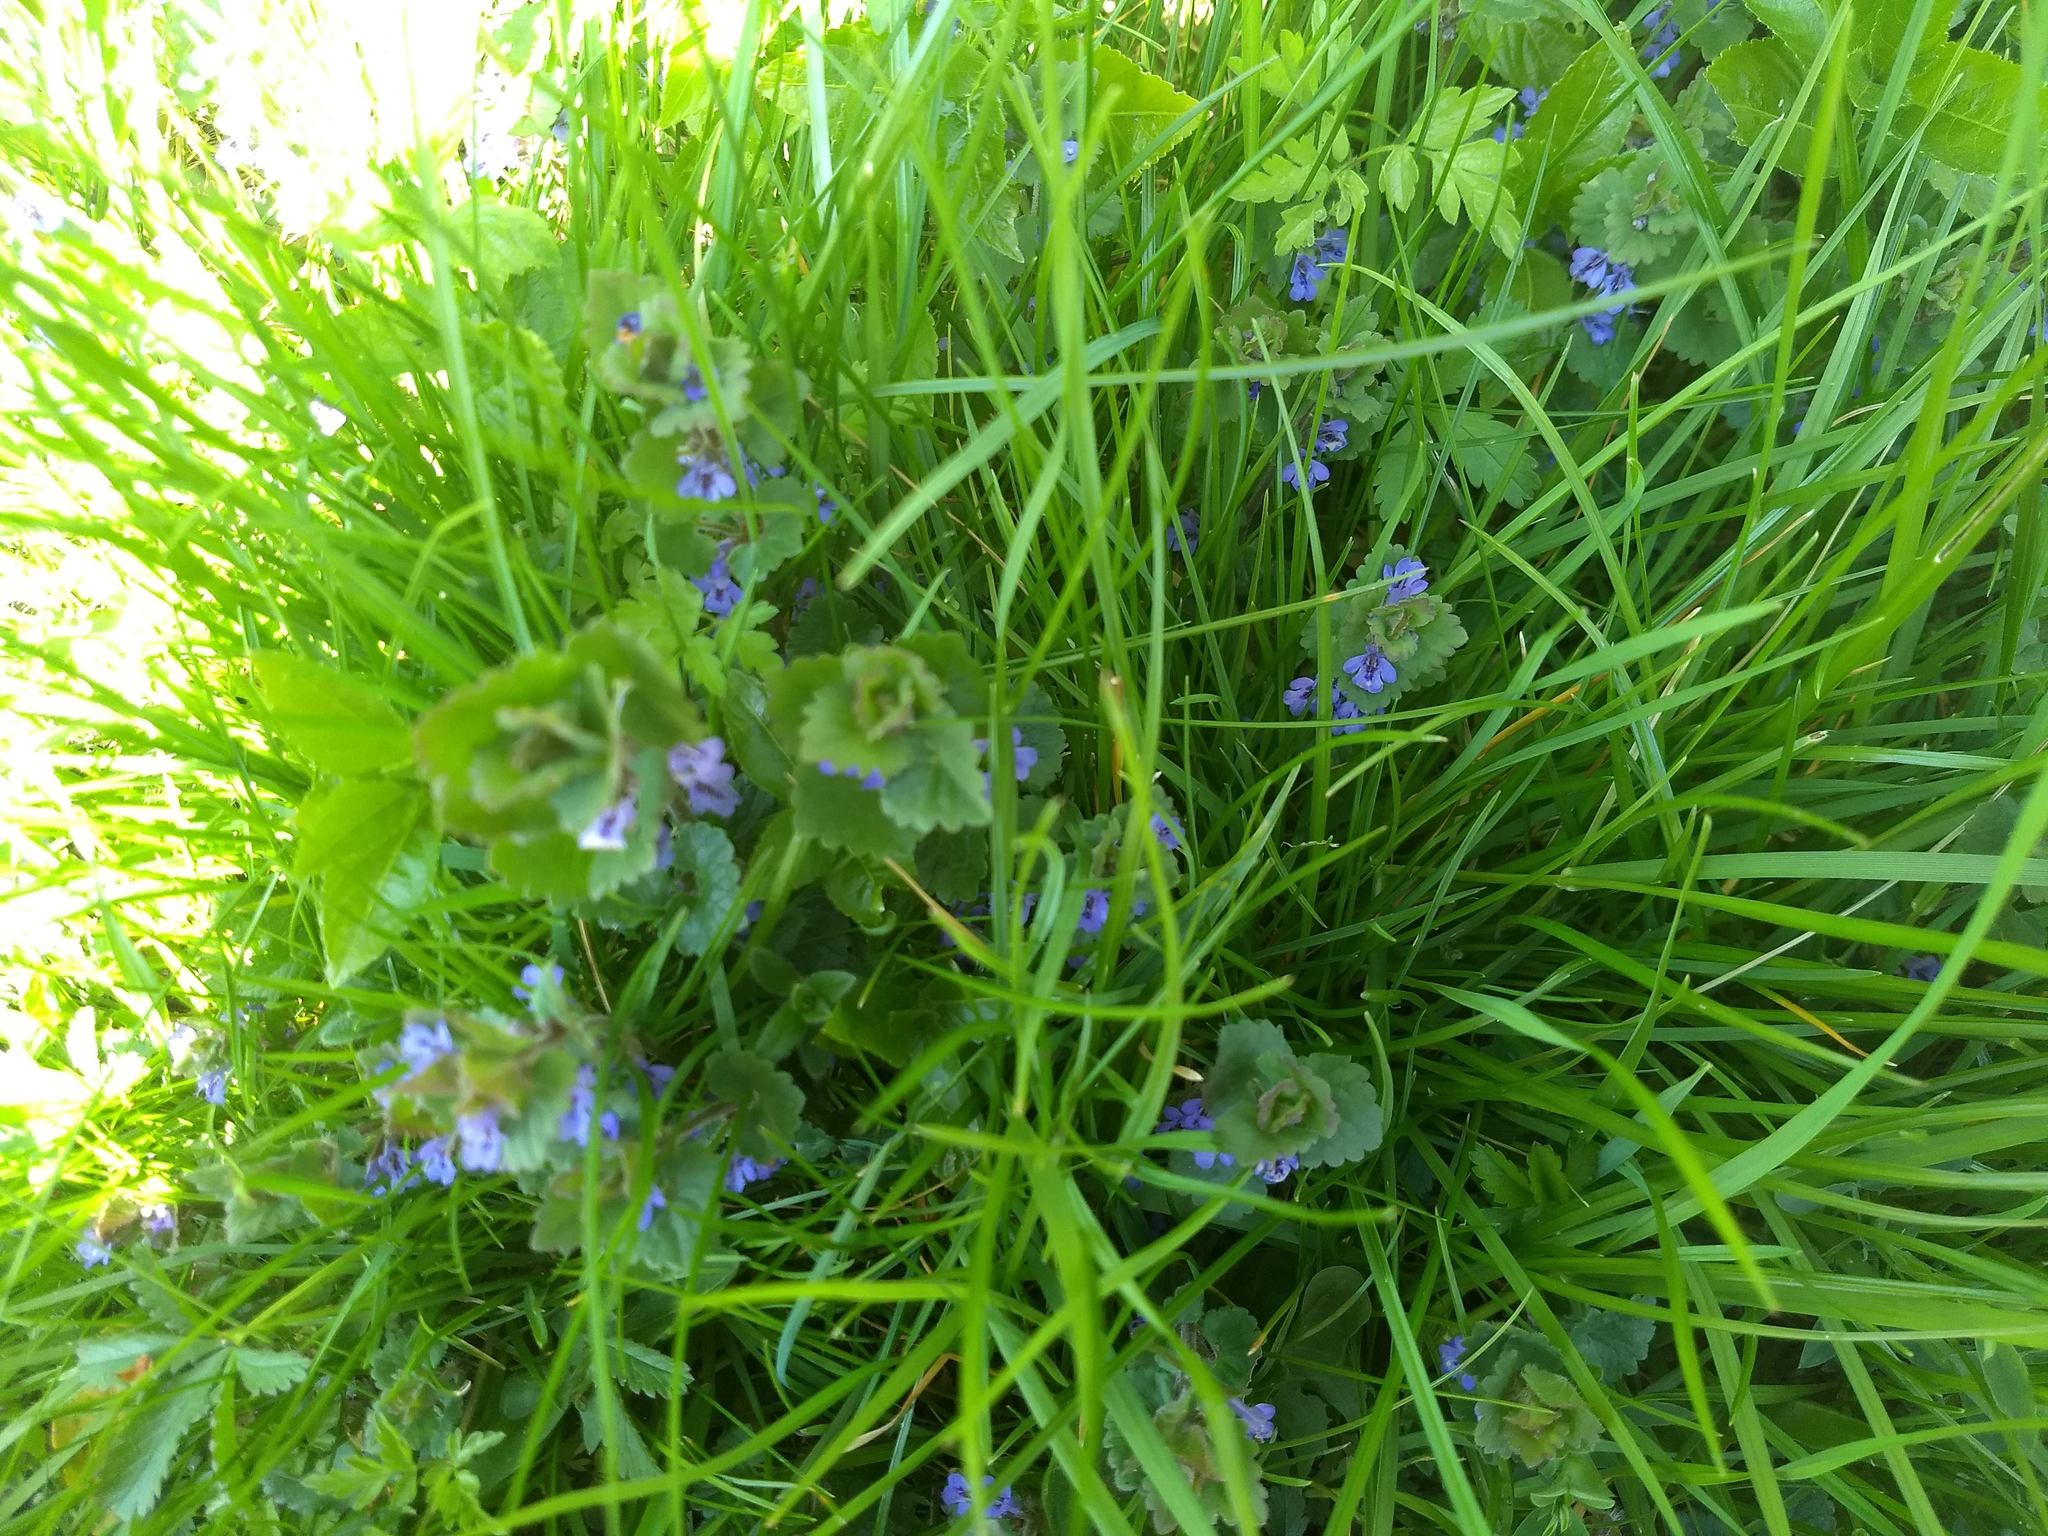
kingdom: Plantae
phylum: Tracheophyta
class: Magnoliopsida
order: Lamiales
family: Lamiaceae
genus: Glechoma
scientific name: Glechoma hederacea
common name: Ground ivy
